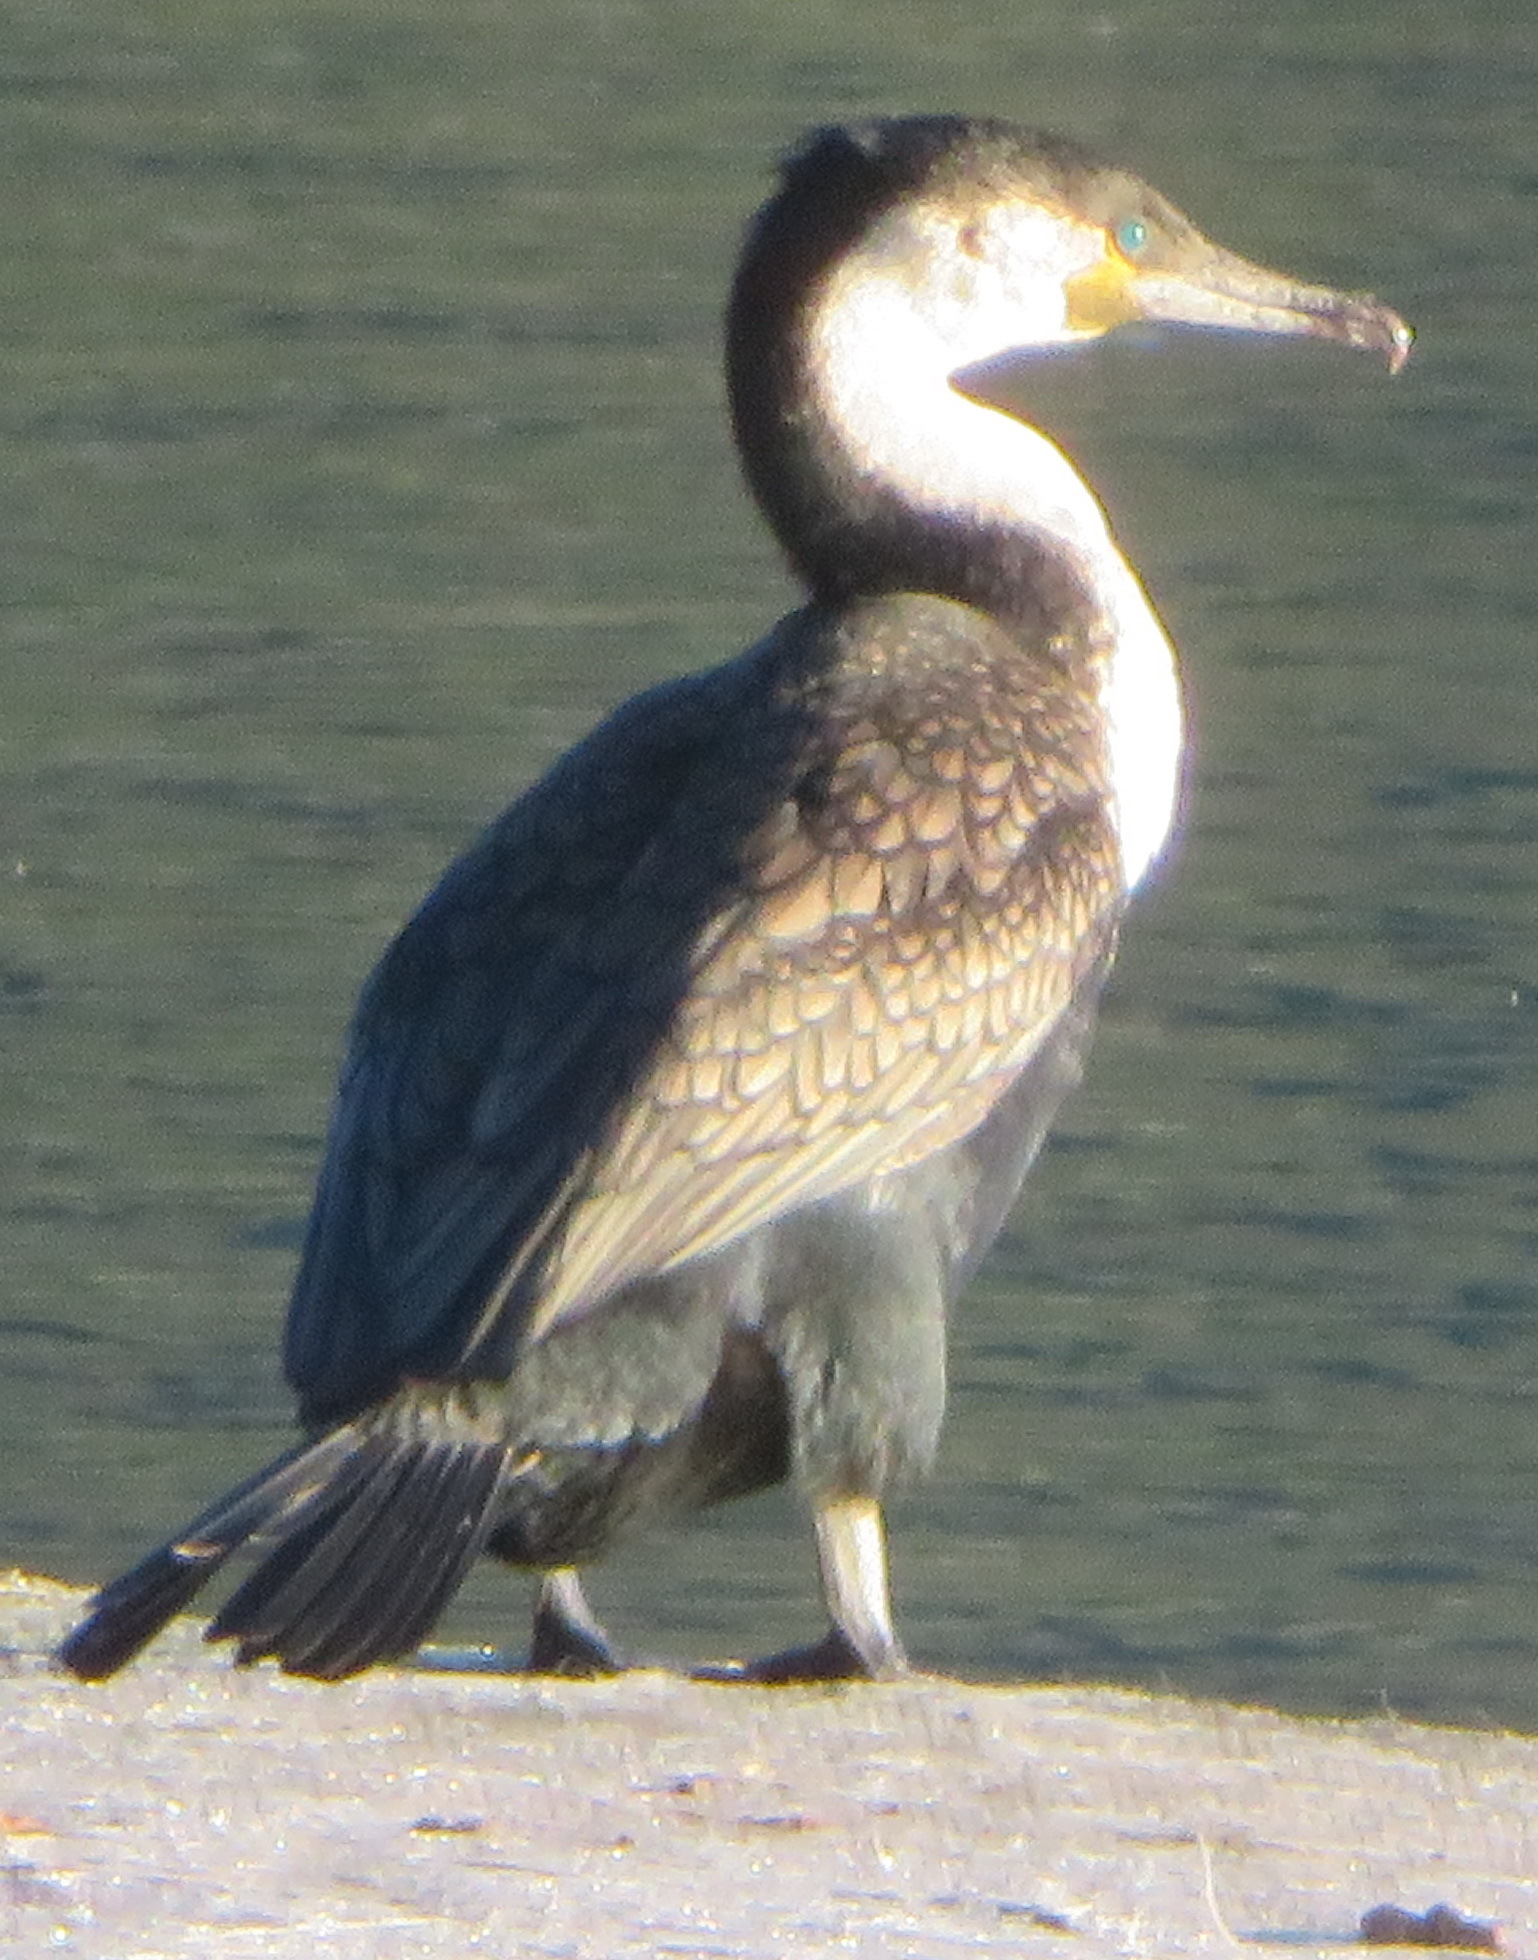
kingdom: Animalia
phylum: Chordata
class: Aves
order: Suliformes
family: Phalacrocoracidae
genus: Phalacrocorax
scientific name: Phalacrocorax carbo
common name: Great cormorant
